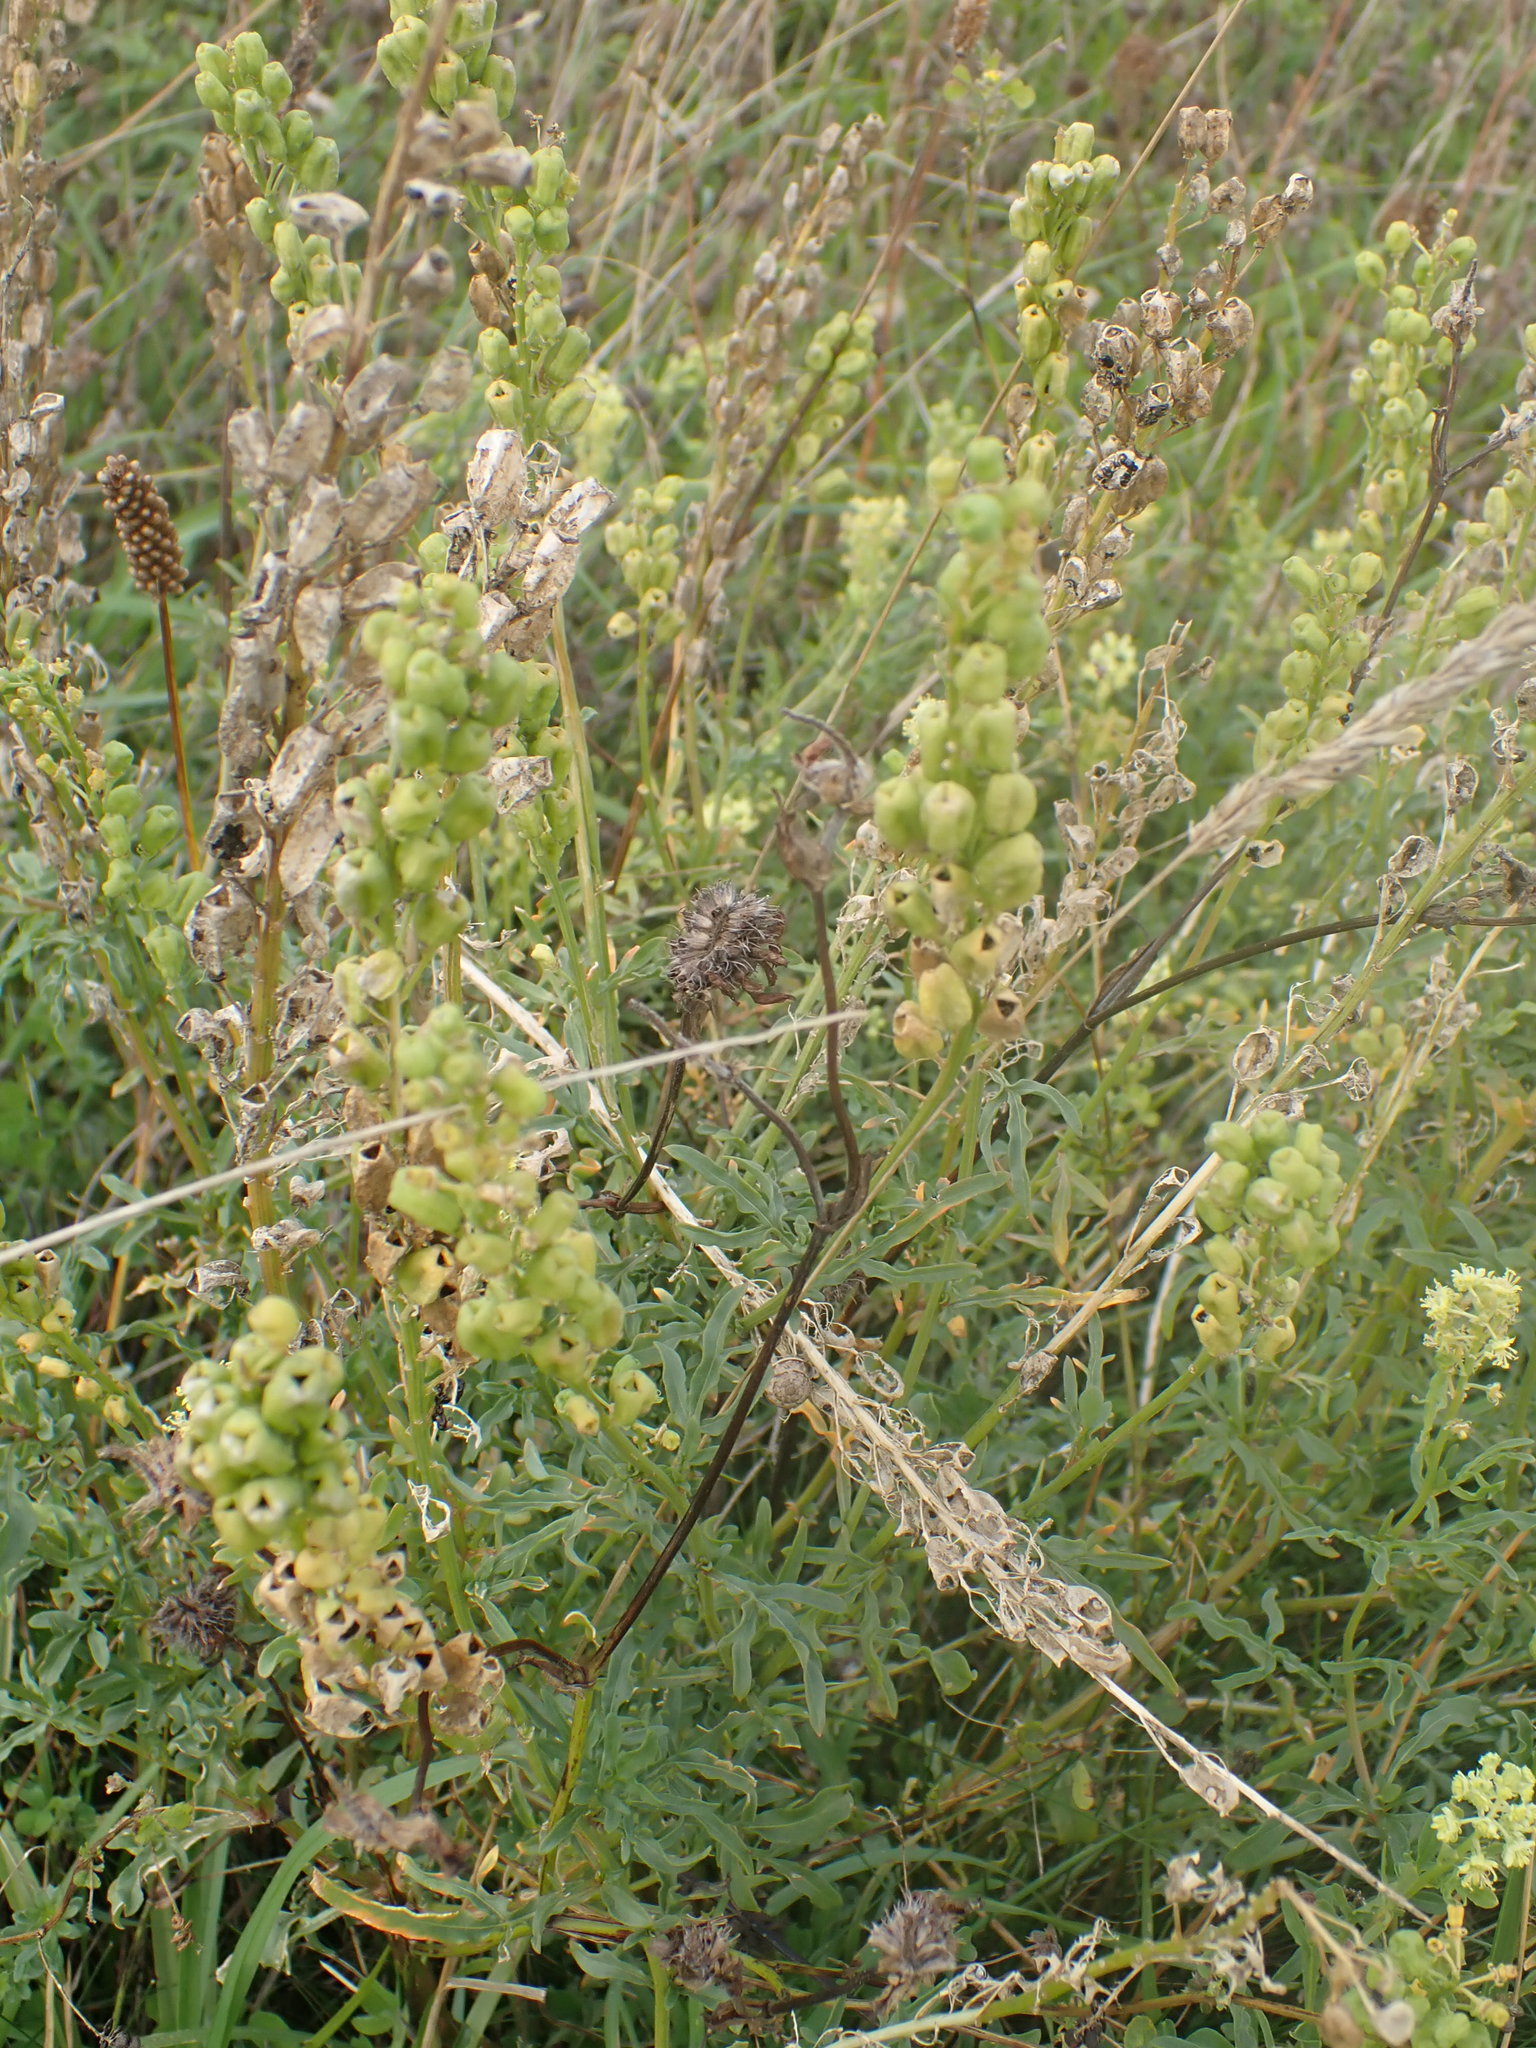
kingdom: Plantae
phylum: Tracheophyta
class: Magnoliopsida
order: Brassicales
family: Resedaceae
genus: Reseda
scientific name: Reseda lutea
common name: Wild mignonette
